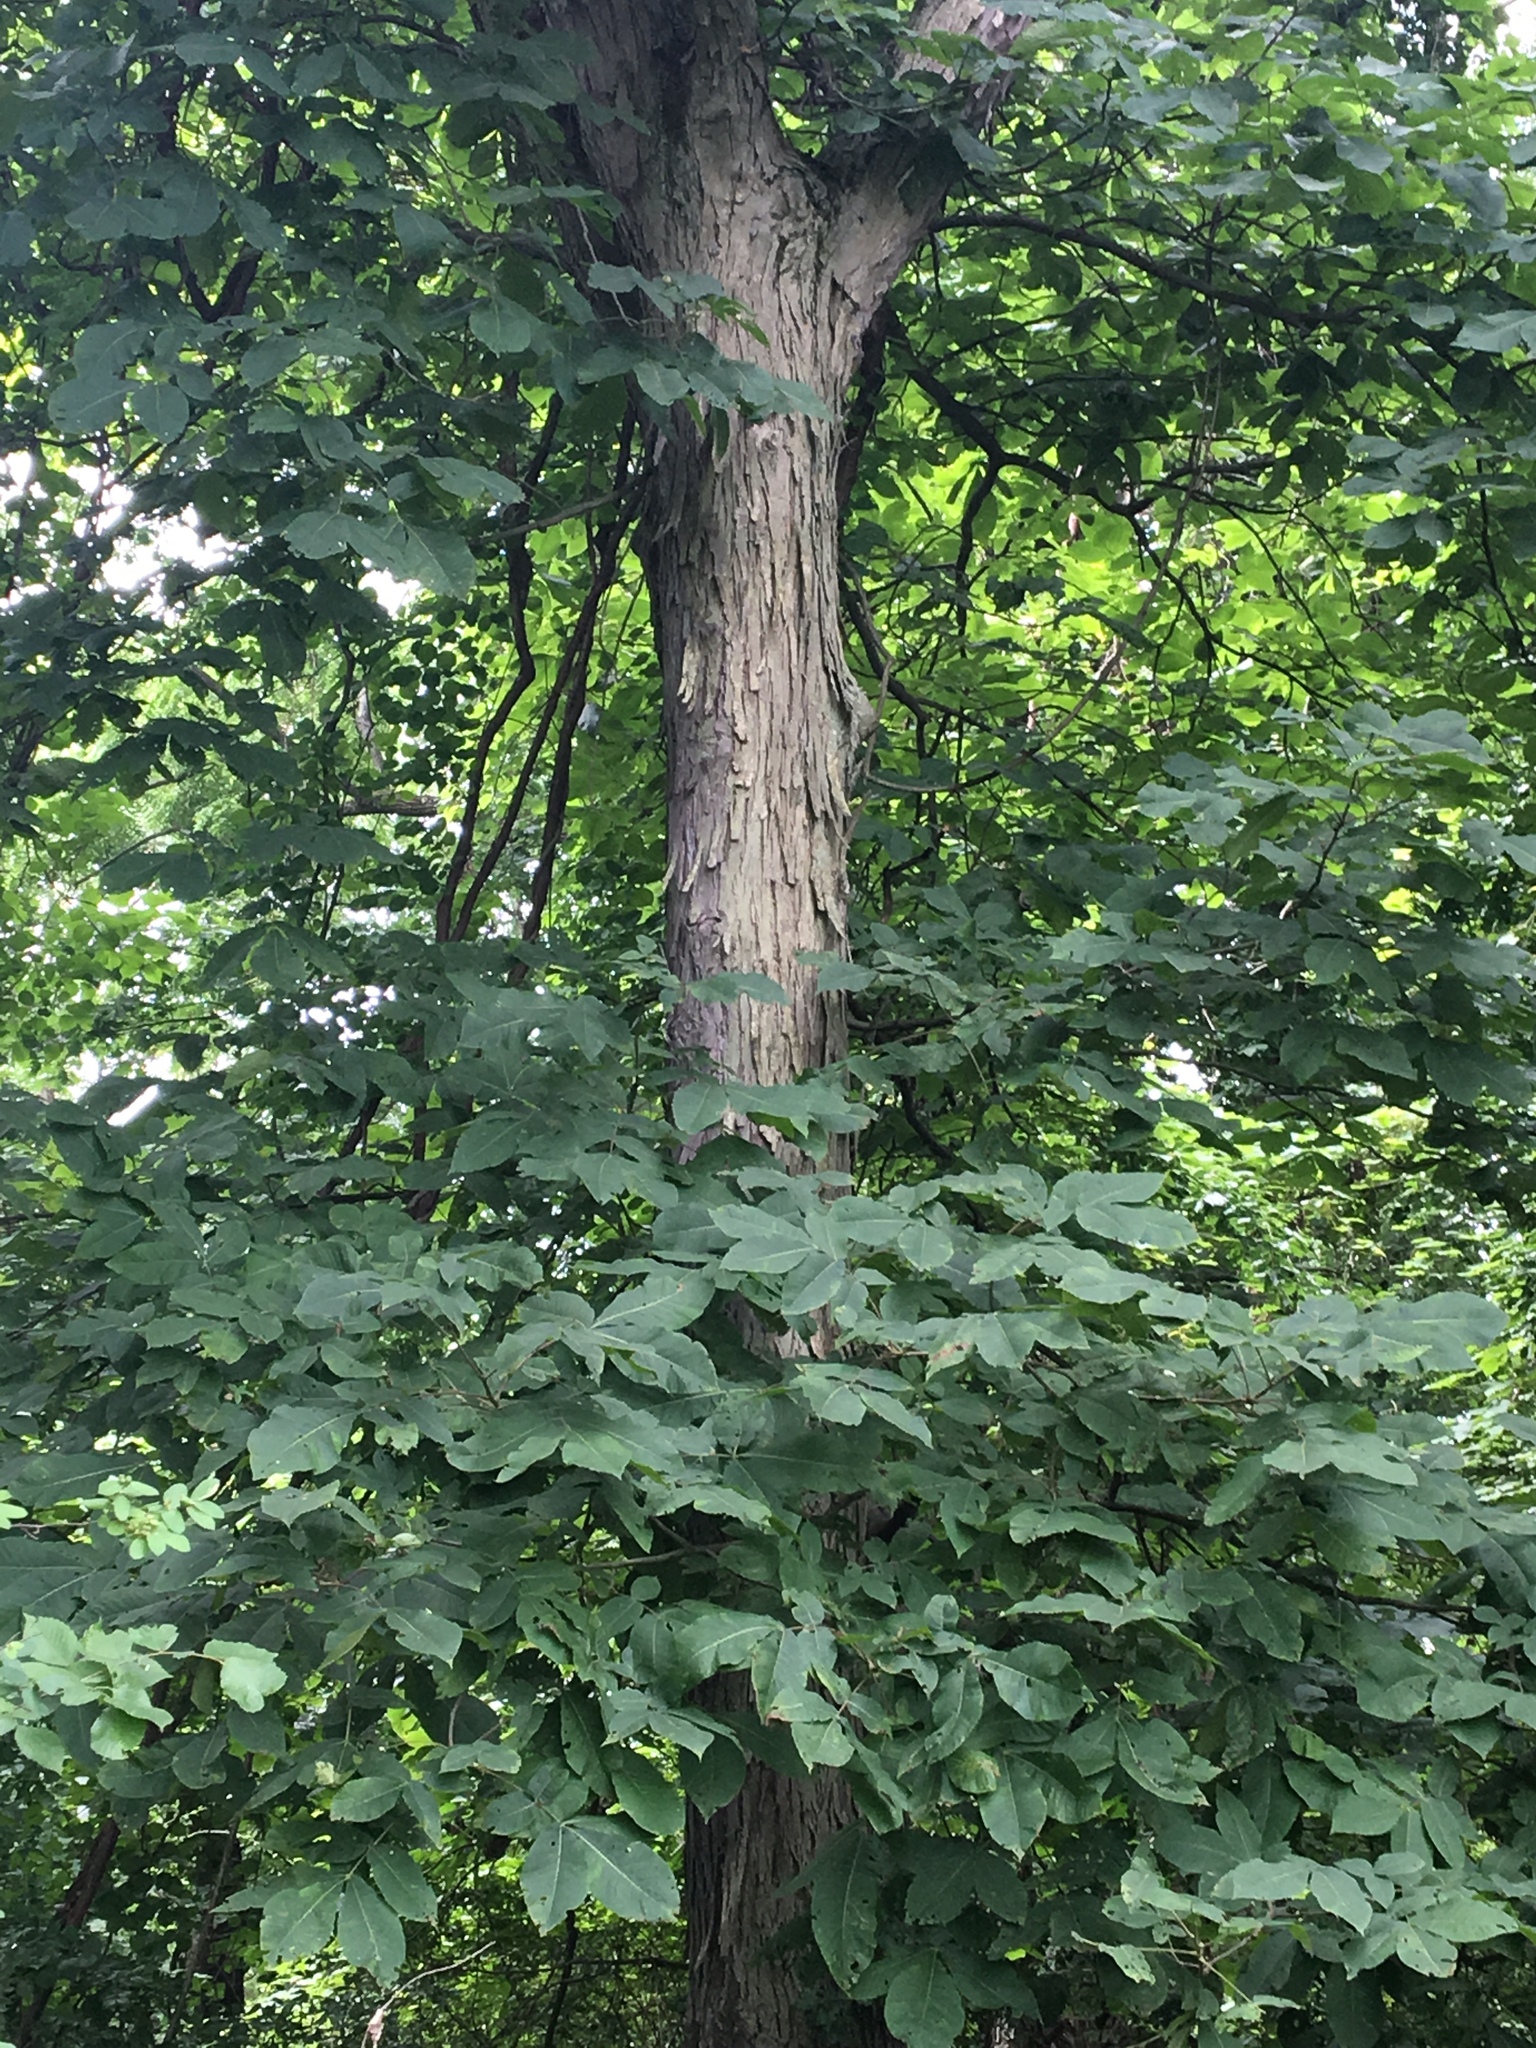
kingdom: Plantae
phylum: Tracheophyta
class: Magnoliopsida
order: Fagales
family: Juglandaceae
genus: Carya
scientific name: Carya ovata
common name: Shagbark hickory
